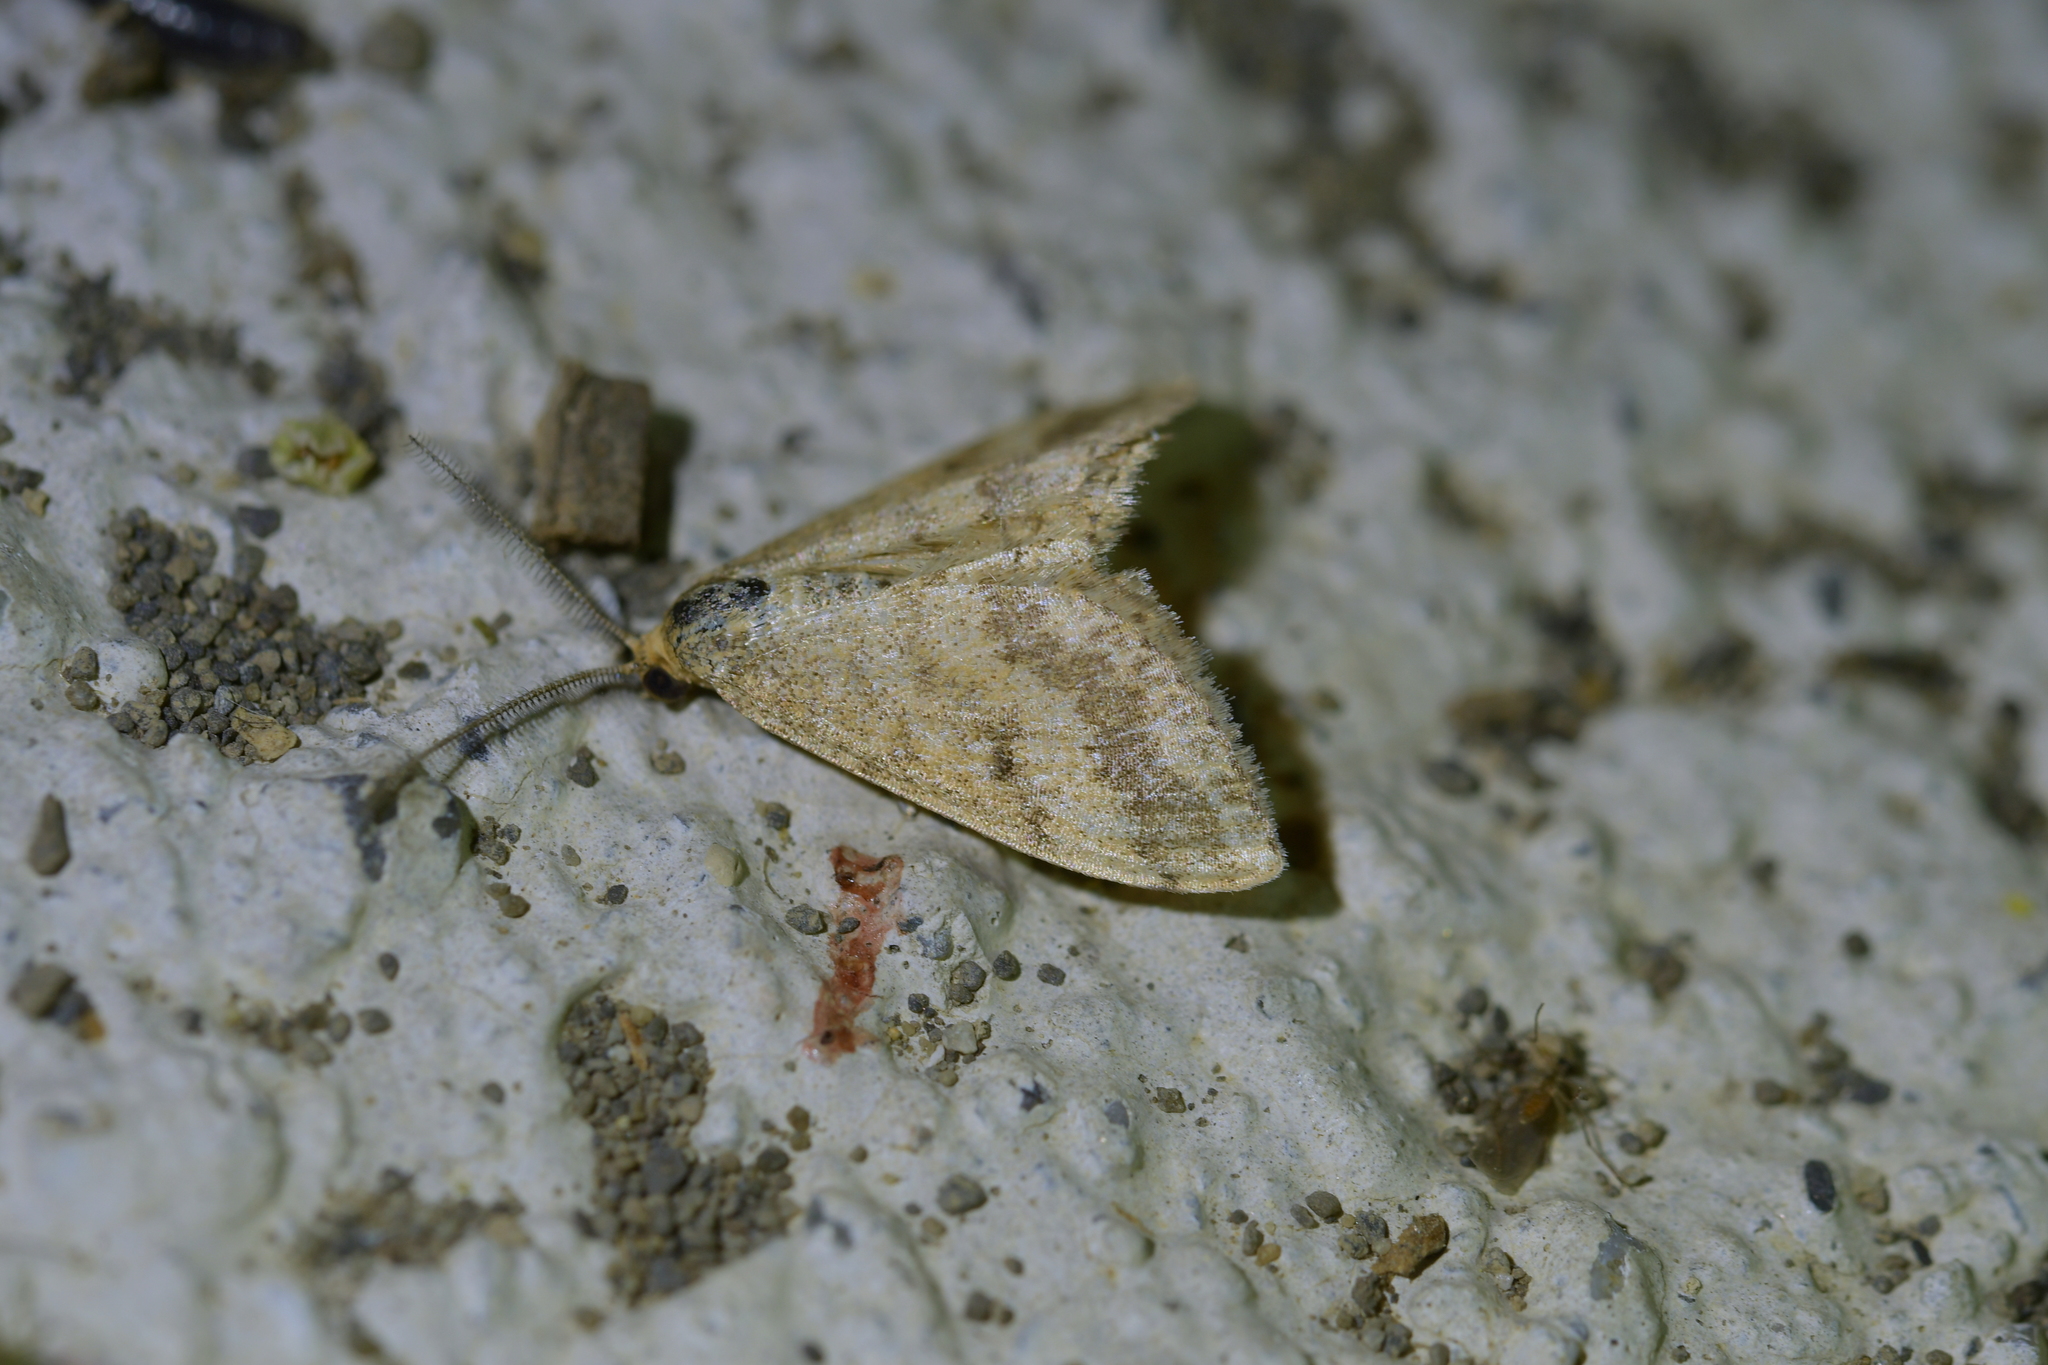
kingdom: Animalia
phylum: Arthropoda
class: Insecta
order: Lepidoptera
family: Geometridae
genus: Scopula
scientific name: Scopula rubraria
